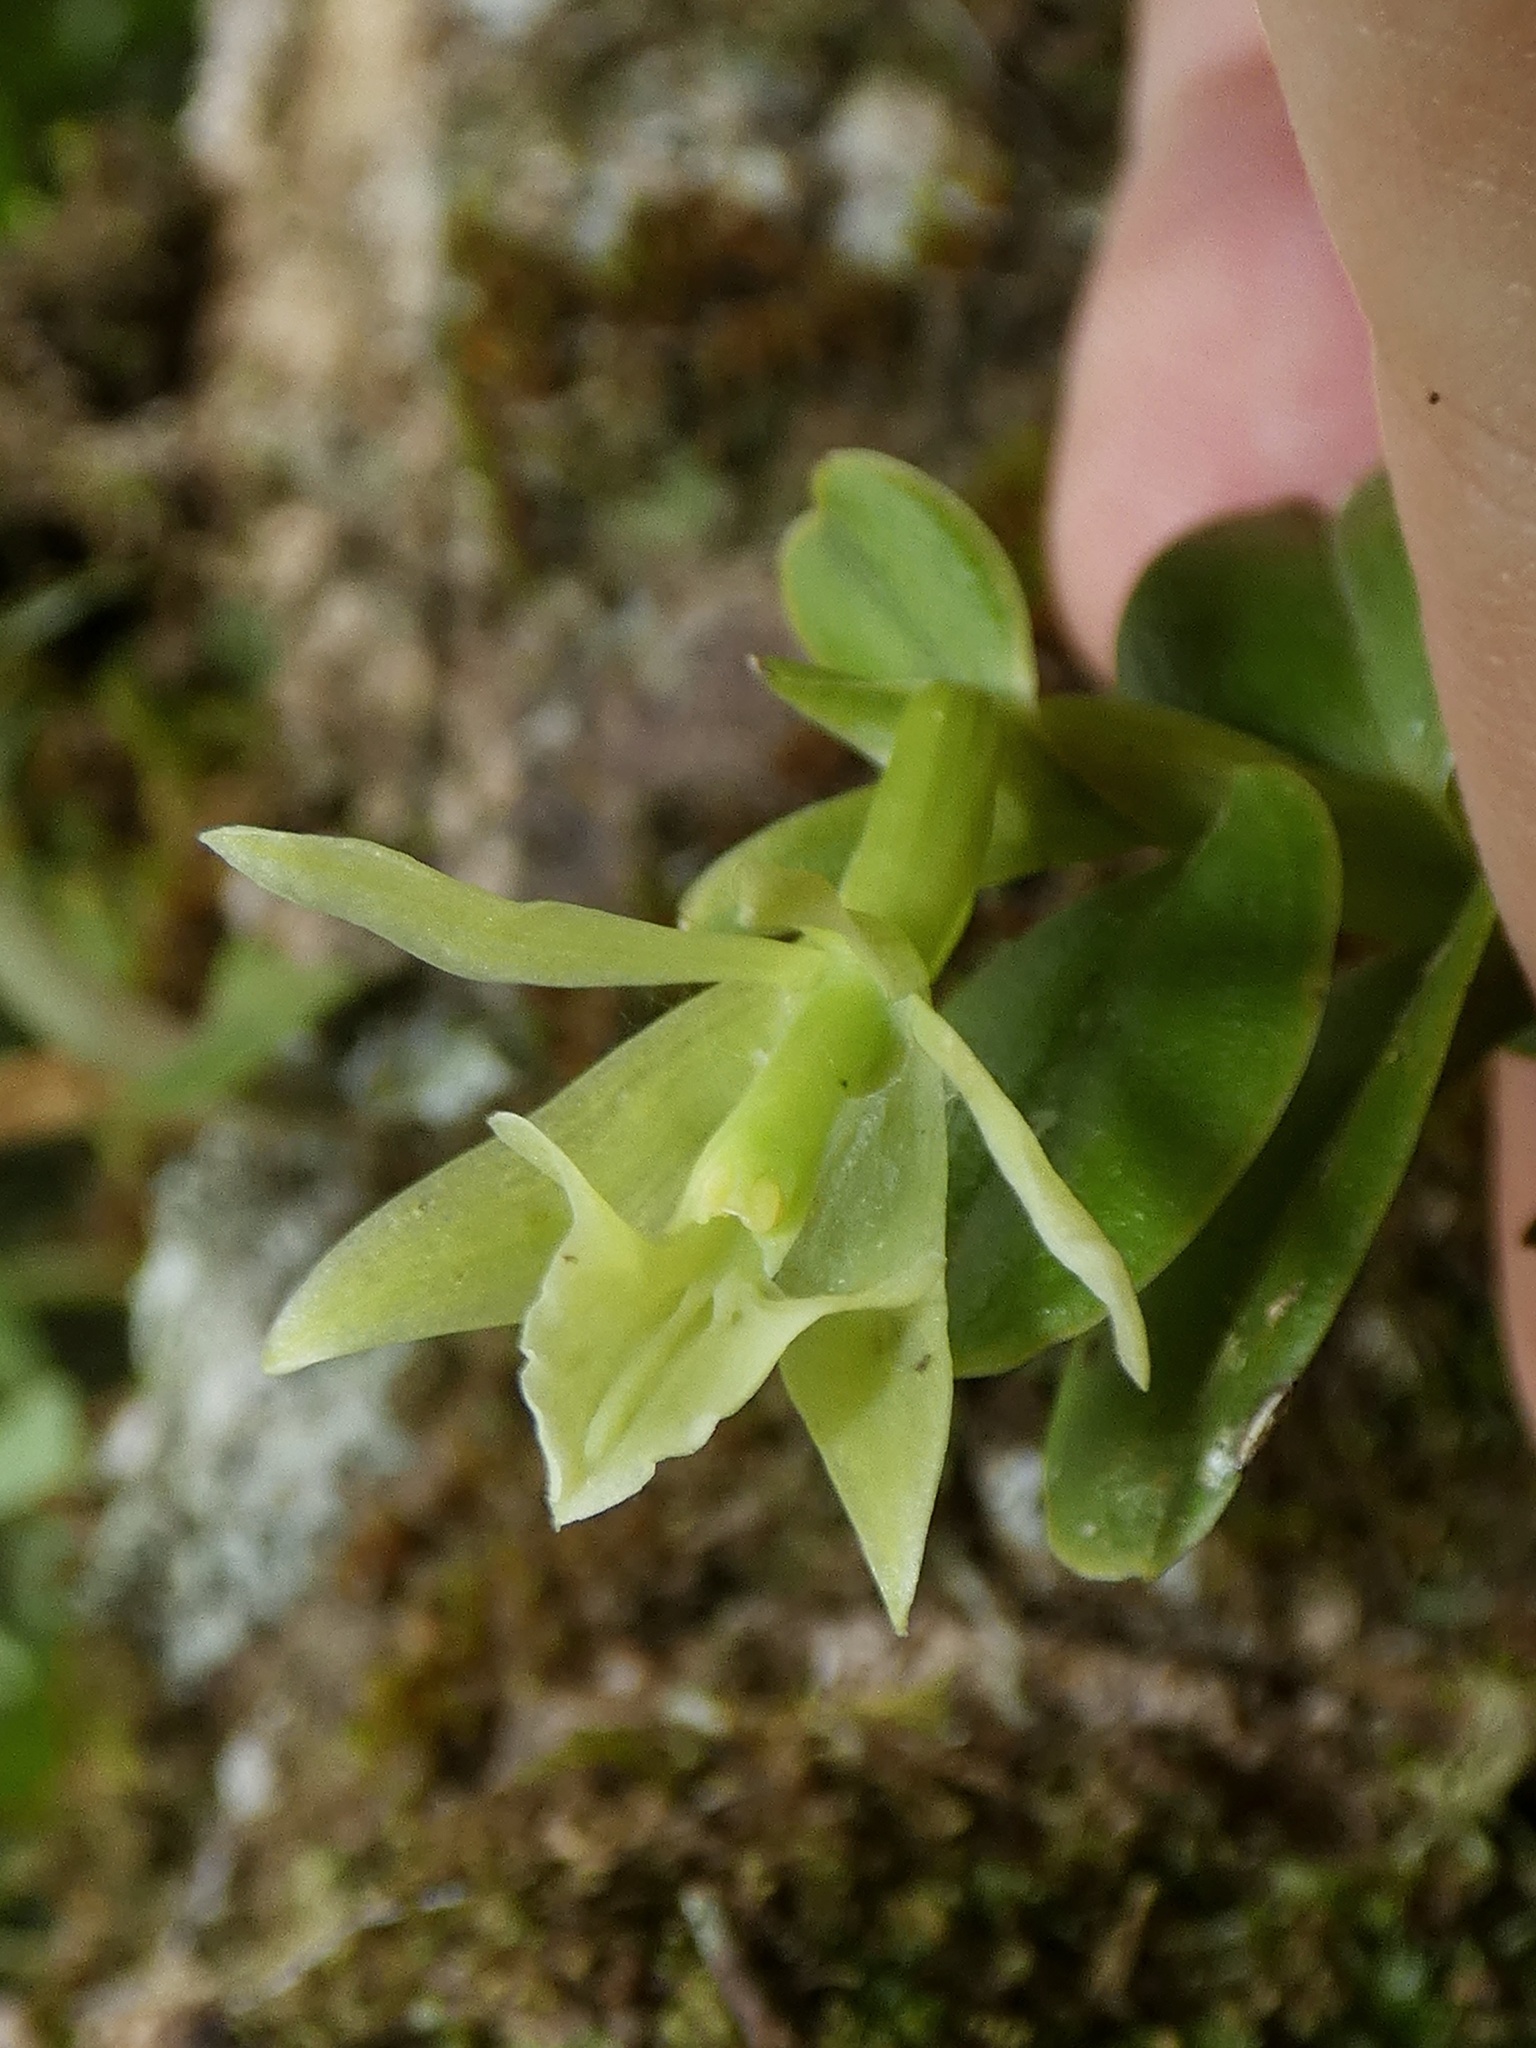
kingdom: Plantae
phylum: Tracheophyta
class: Liliopsida
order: Asparagales
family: Orchidaceae
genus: Epidendrum
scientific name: Epidendrum triangulabium
